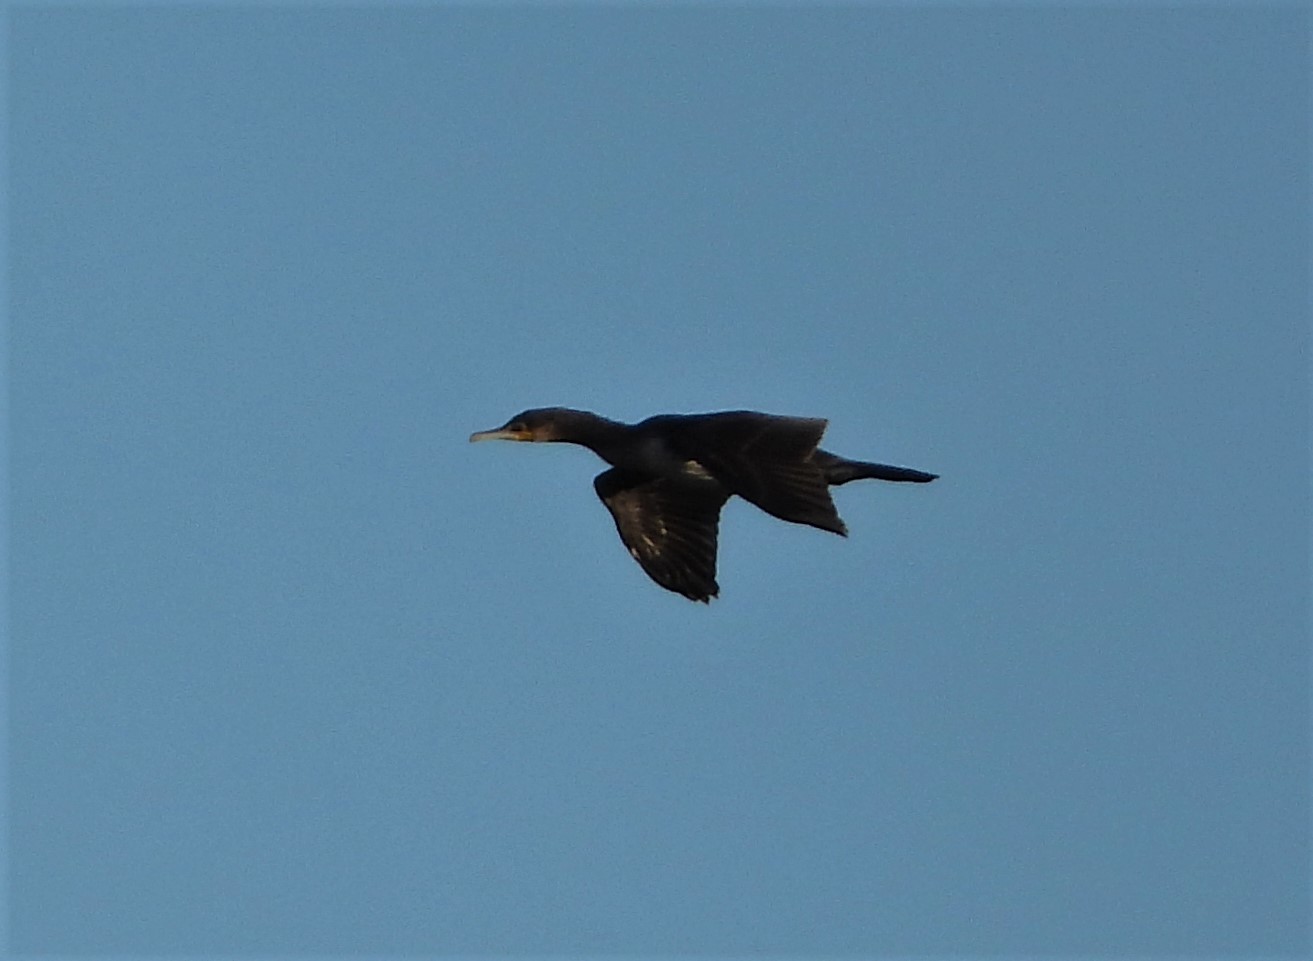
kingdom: Animalia
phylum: Chordata
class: Aves
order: Suliformes
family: Phalacrocoracidae
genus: Phalacrocorax
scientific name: Phalacrocorax carbo
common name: Great cormorant
